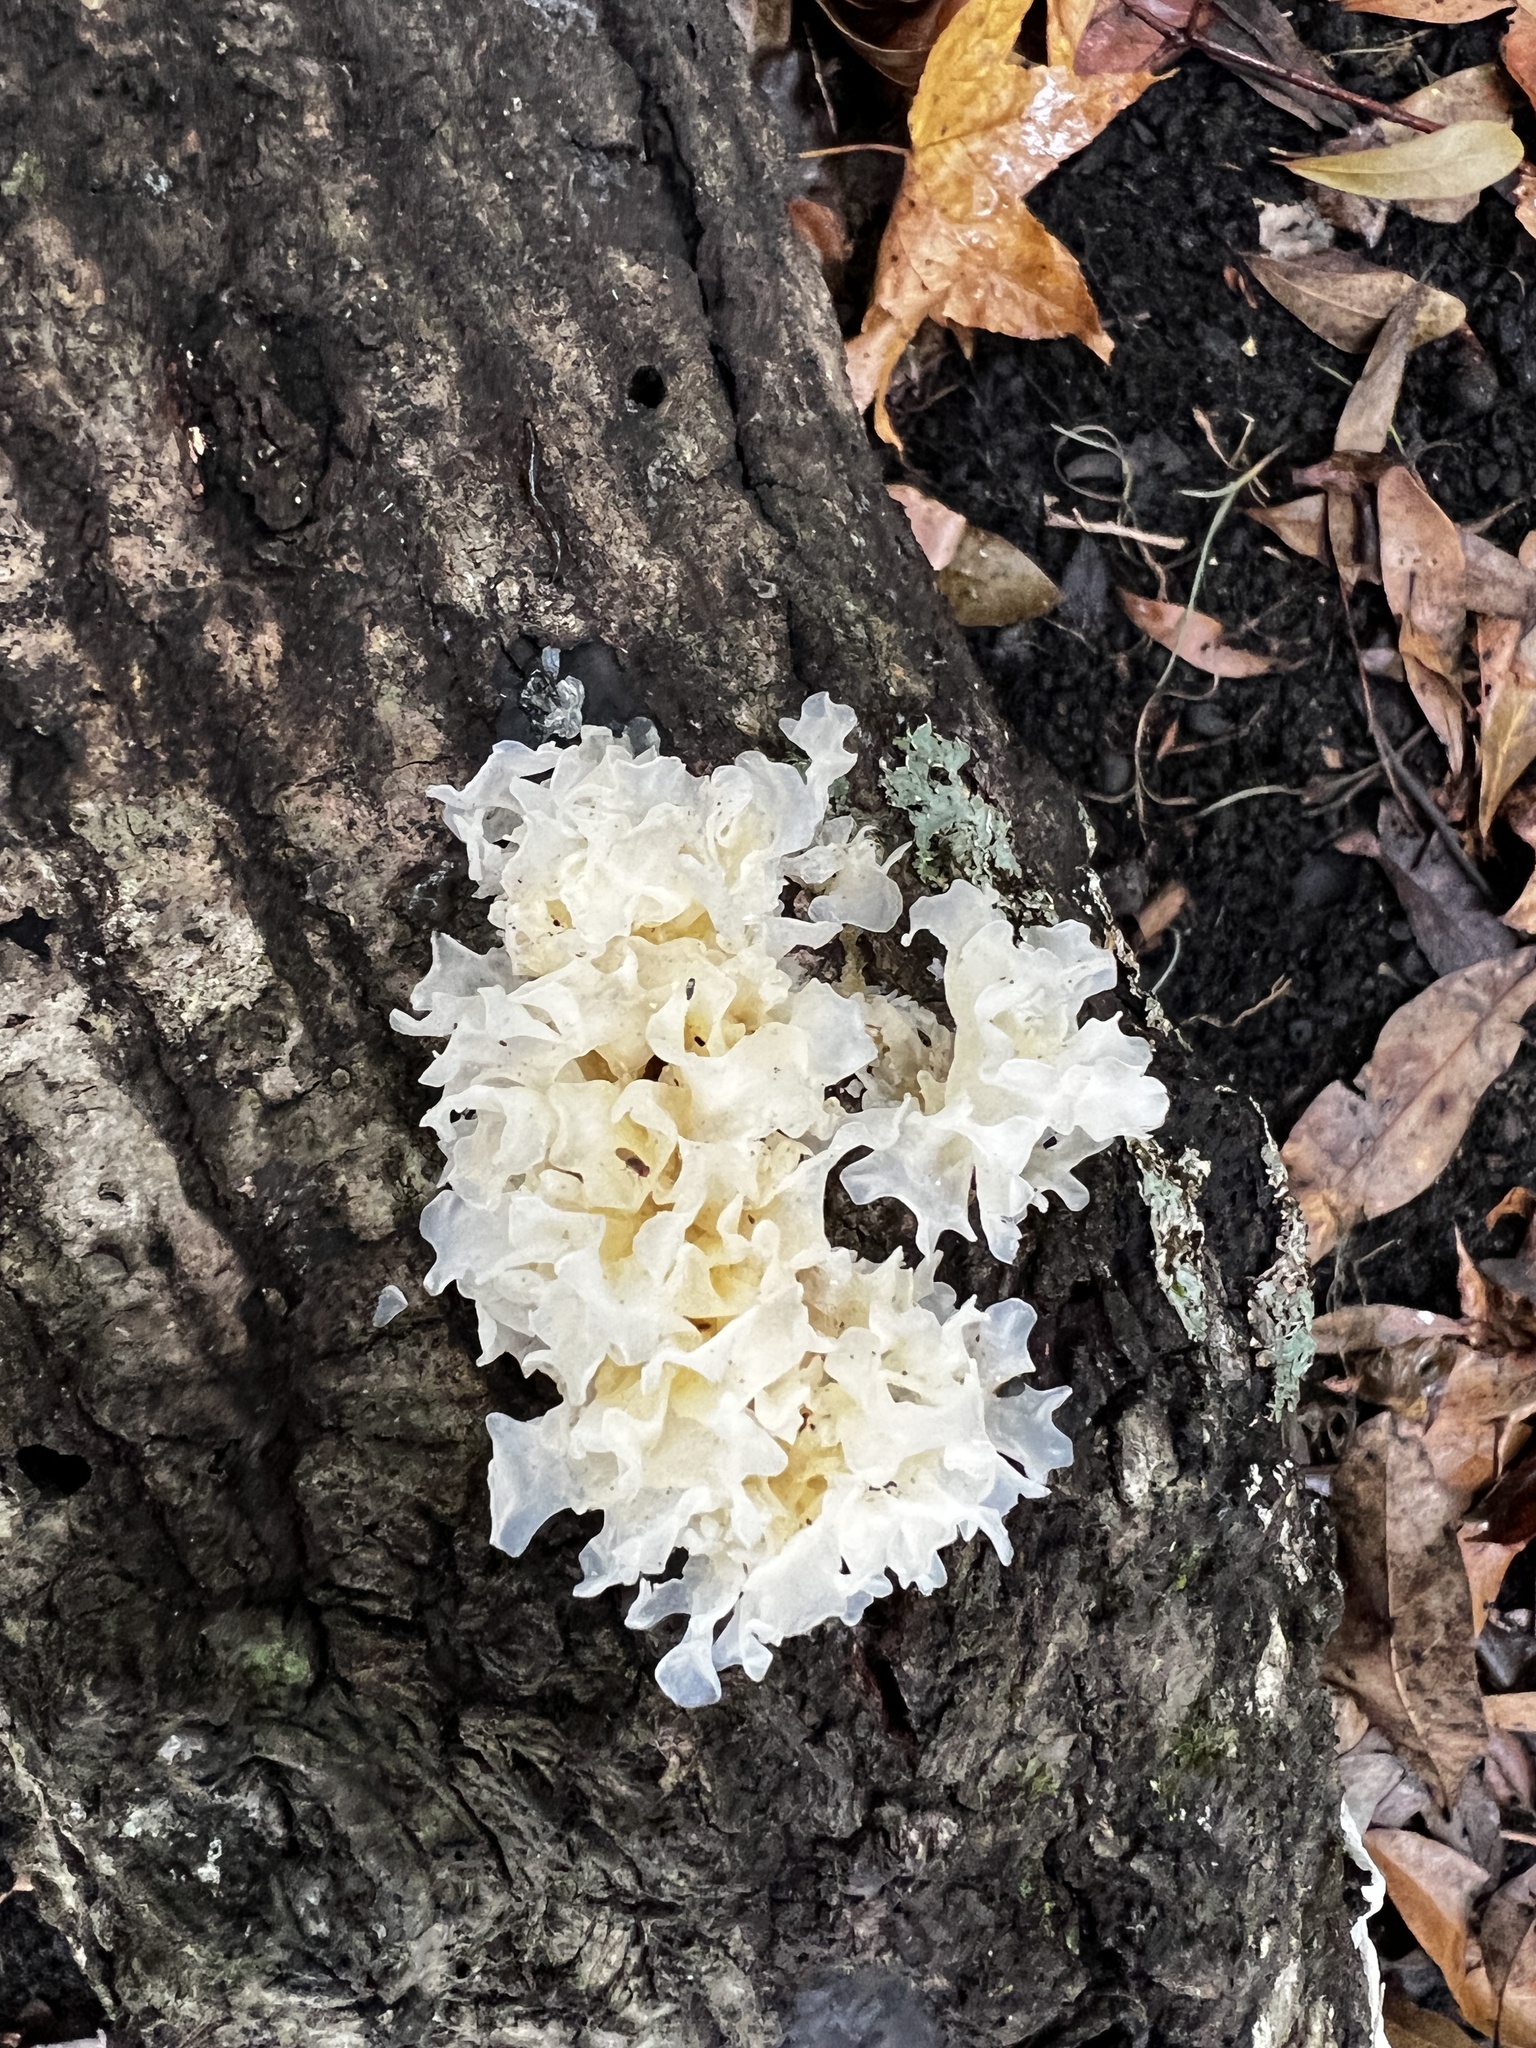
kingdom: Fungi
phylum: Basidiomycota
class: Tremellomycetes
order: Tremellales
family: Tremellaceae
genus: Tremella
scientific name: Tremella fuciformis
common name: Snow fungus
